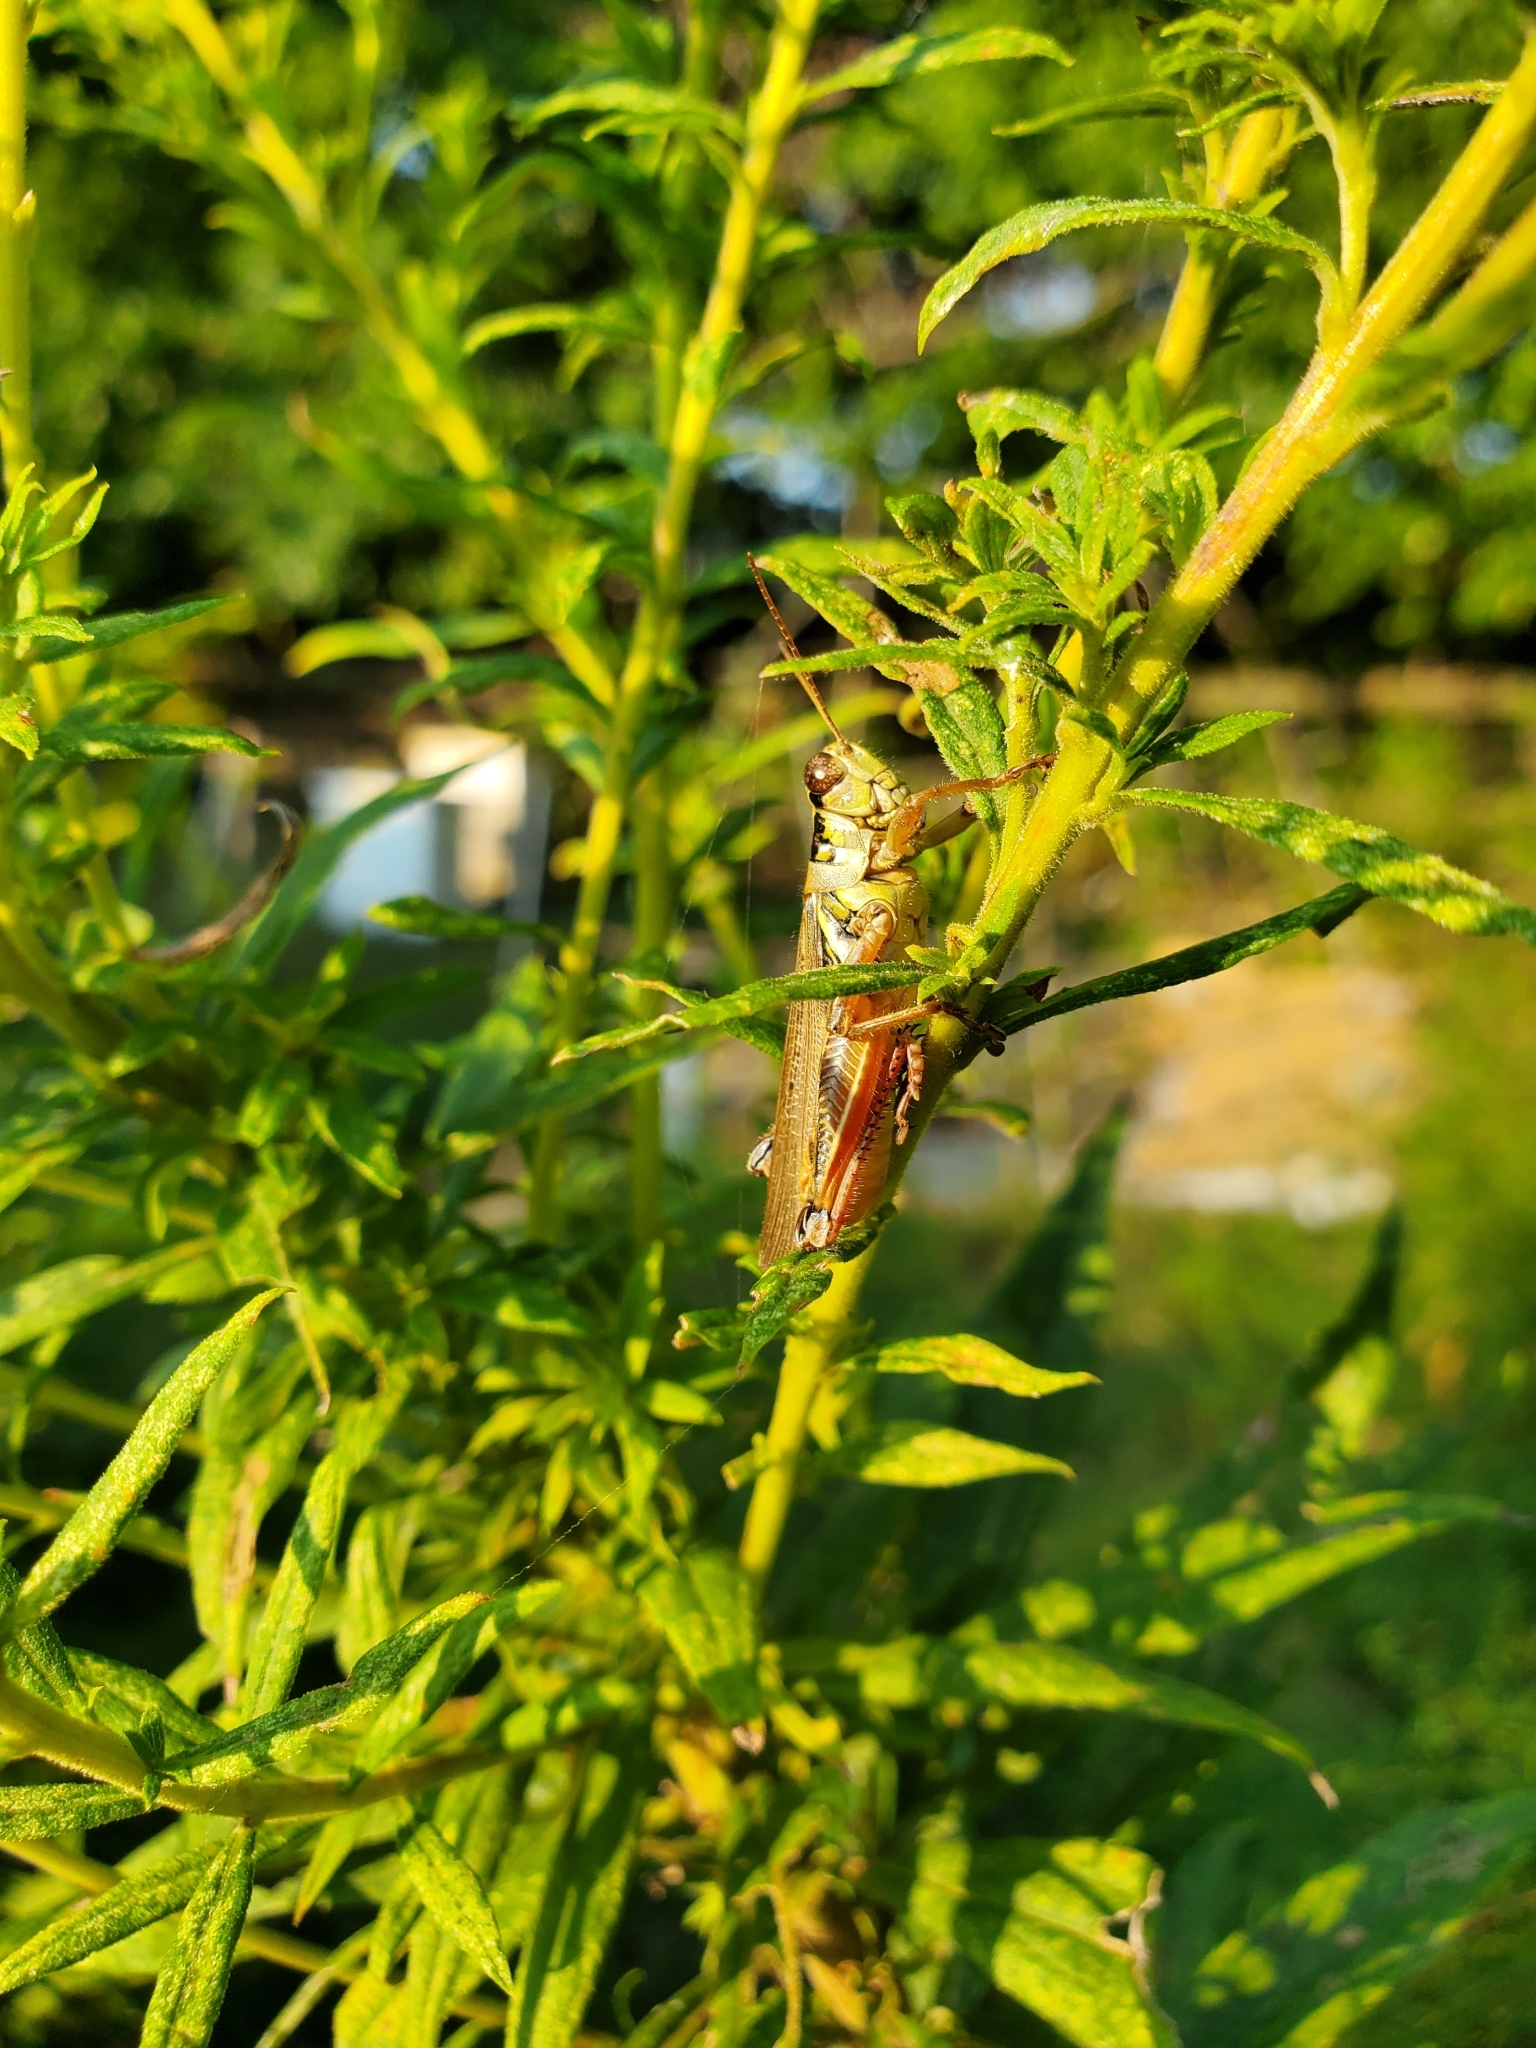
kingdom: Animalia
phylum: Arthropoda
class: Arachnida
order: Araneae
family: Oxyopidae
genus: Peucetia
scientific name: Peucetia viridans
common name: Lynx spiders
